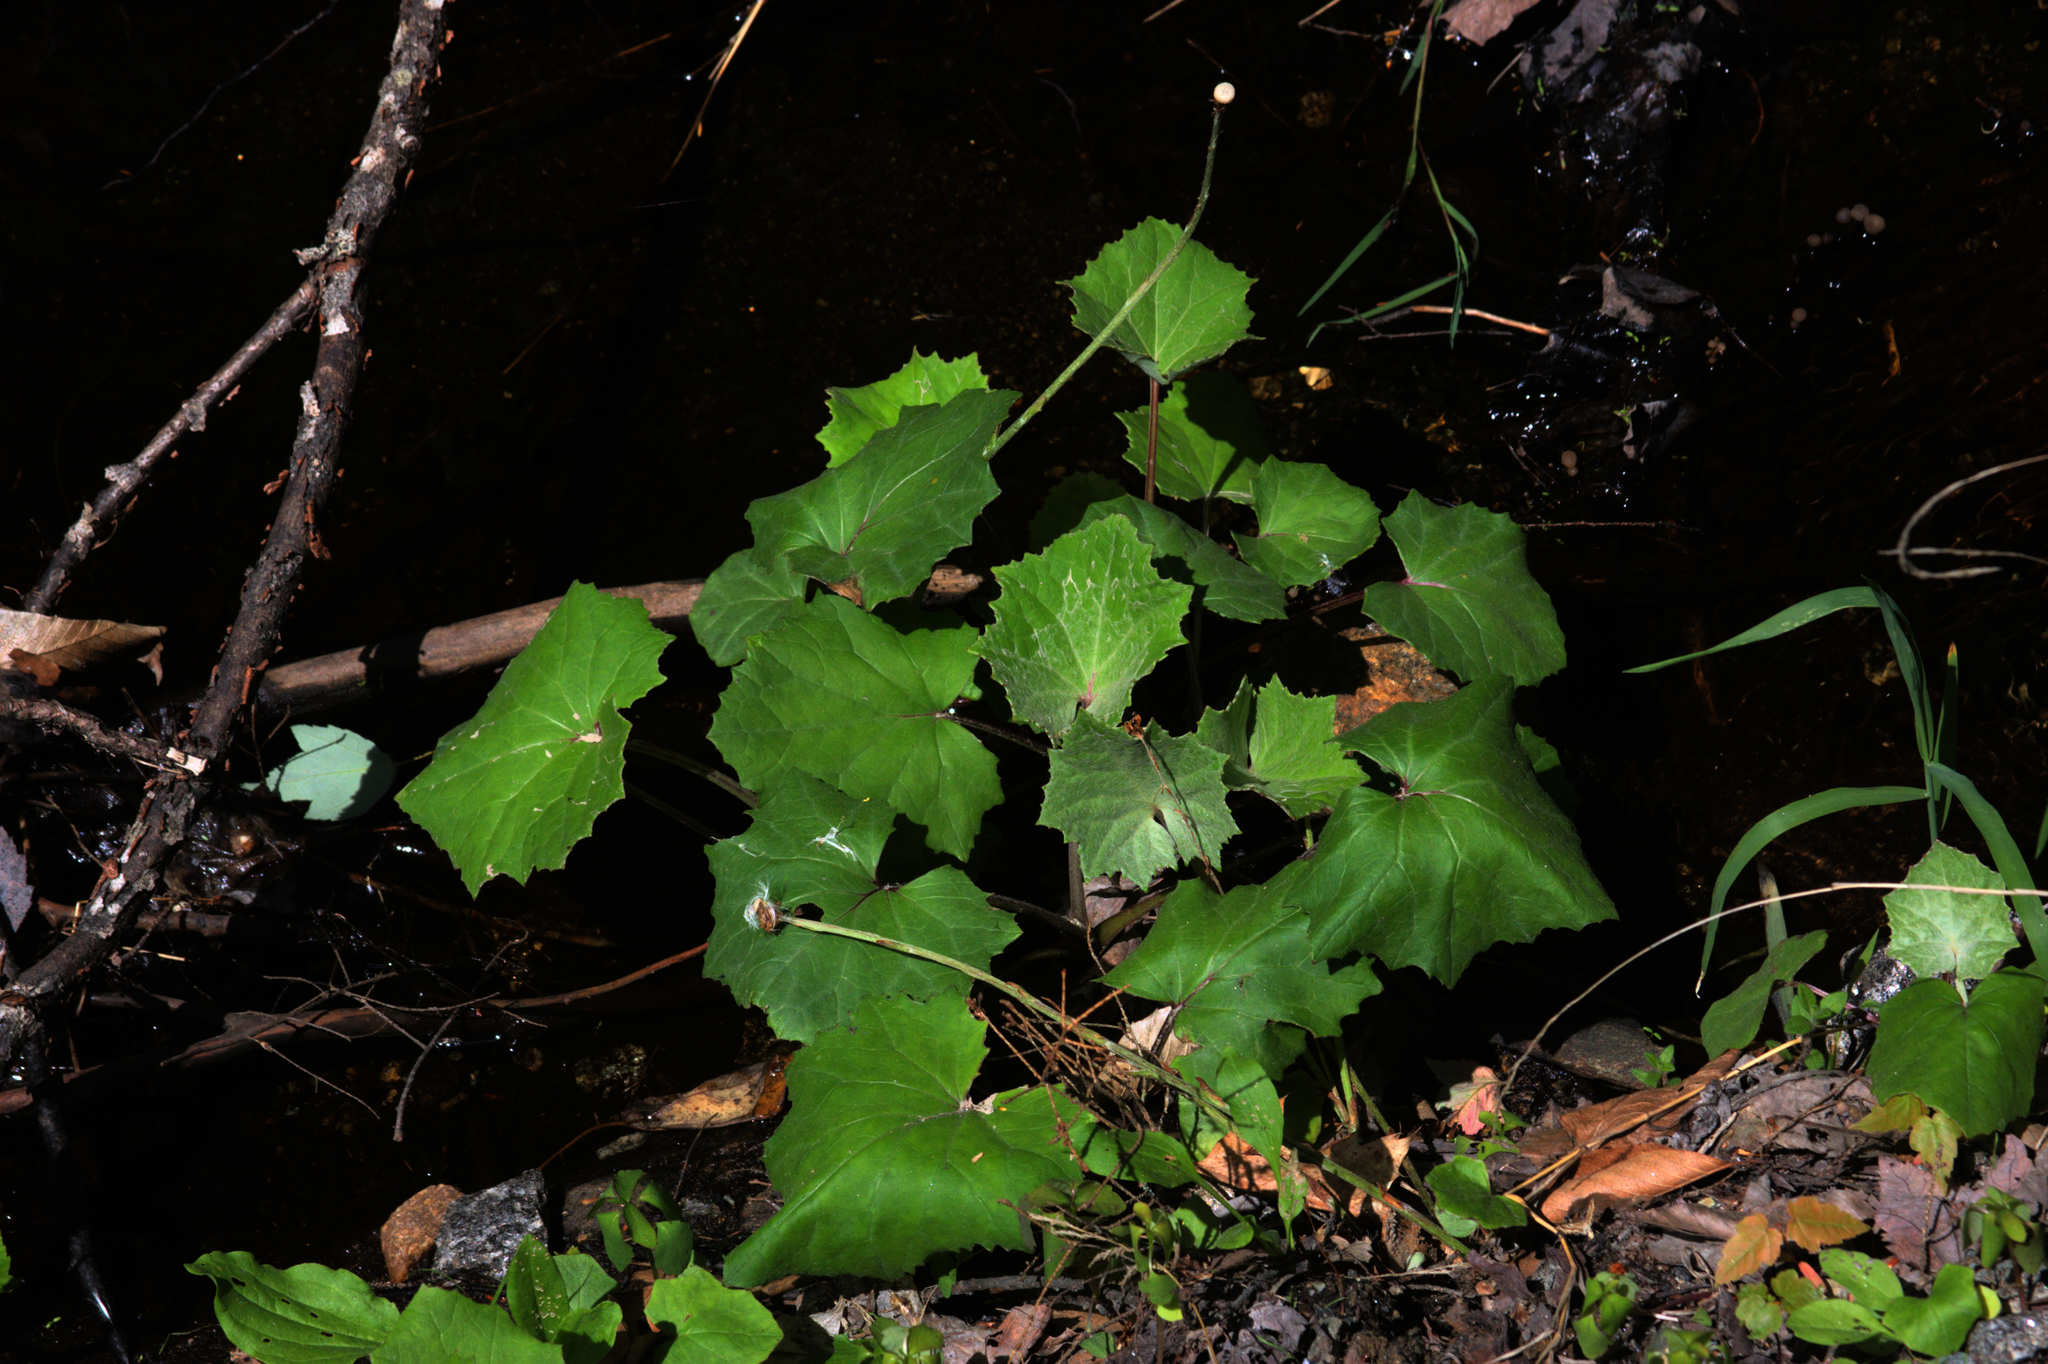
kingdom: Plantae
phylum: Tracheophyta
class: Magnoliopsida
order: Asterales
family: Asteraceae
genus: Tussilago
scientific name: Tussilago farfara
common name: Coltsfoot
